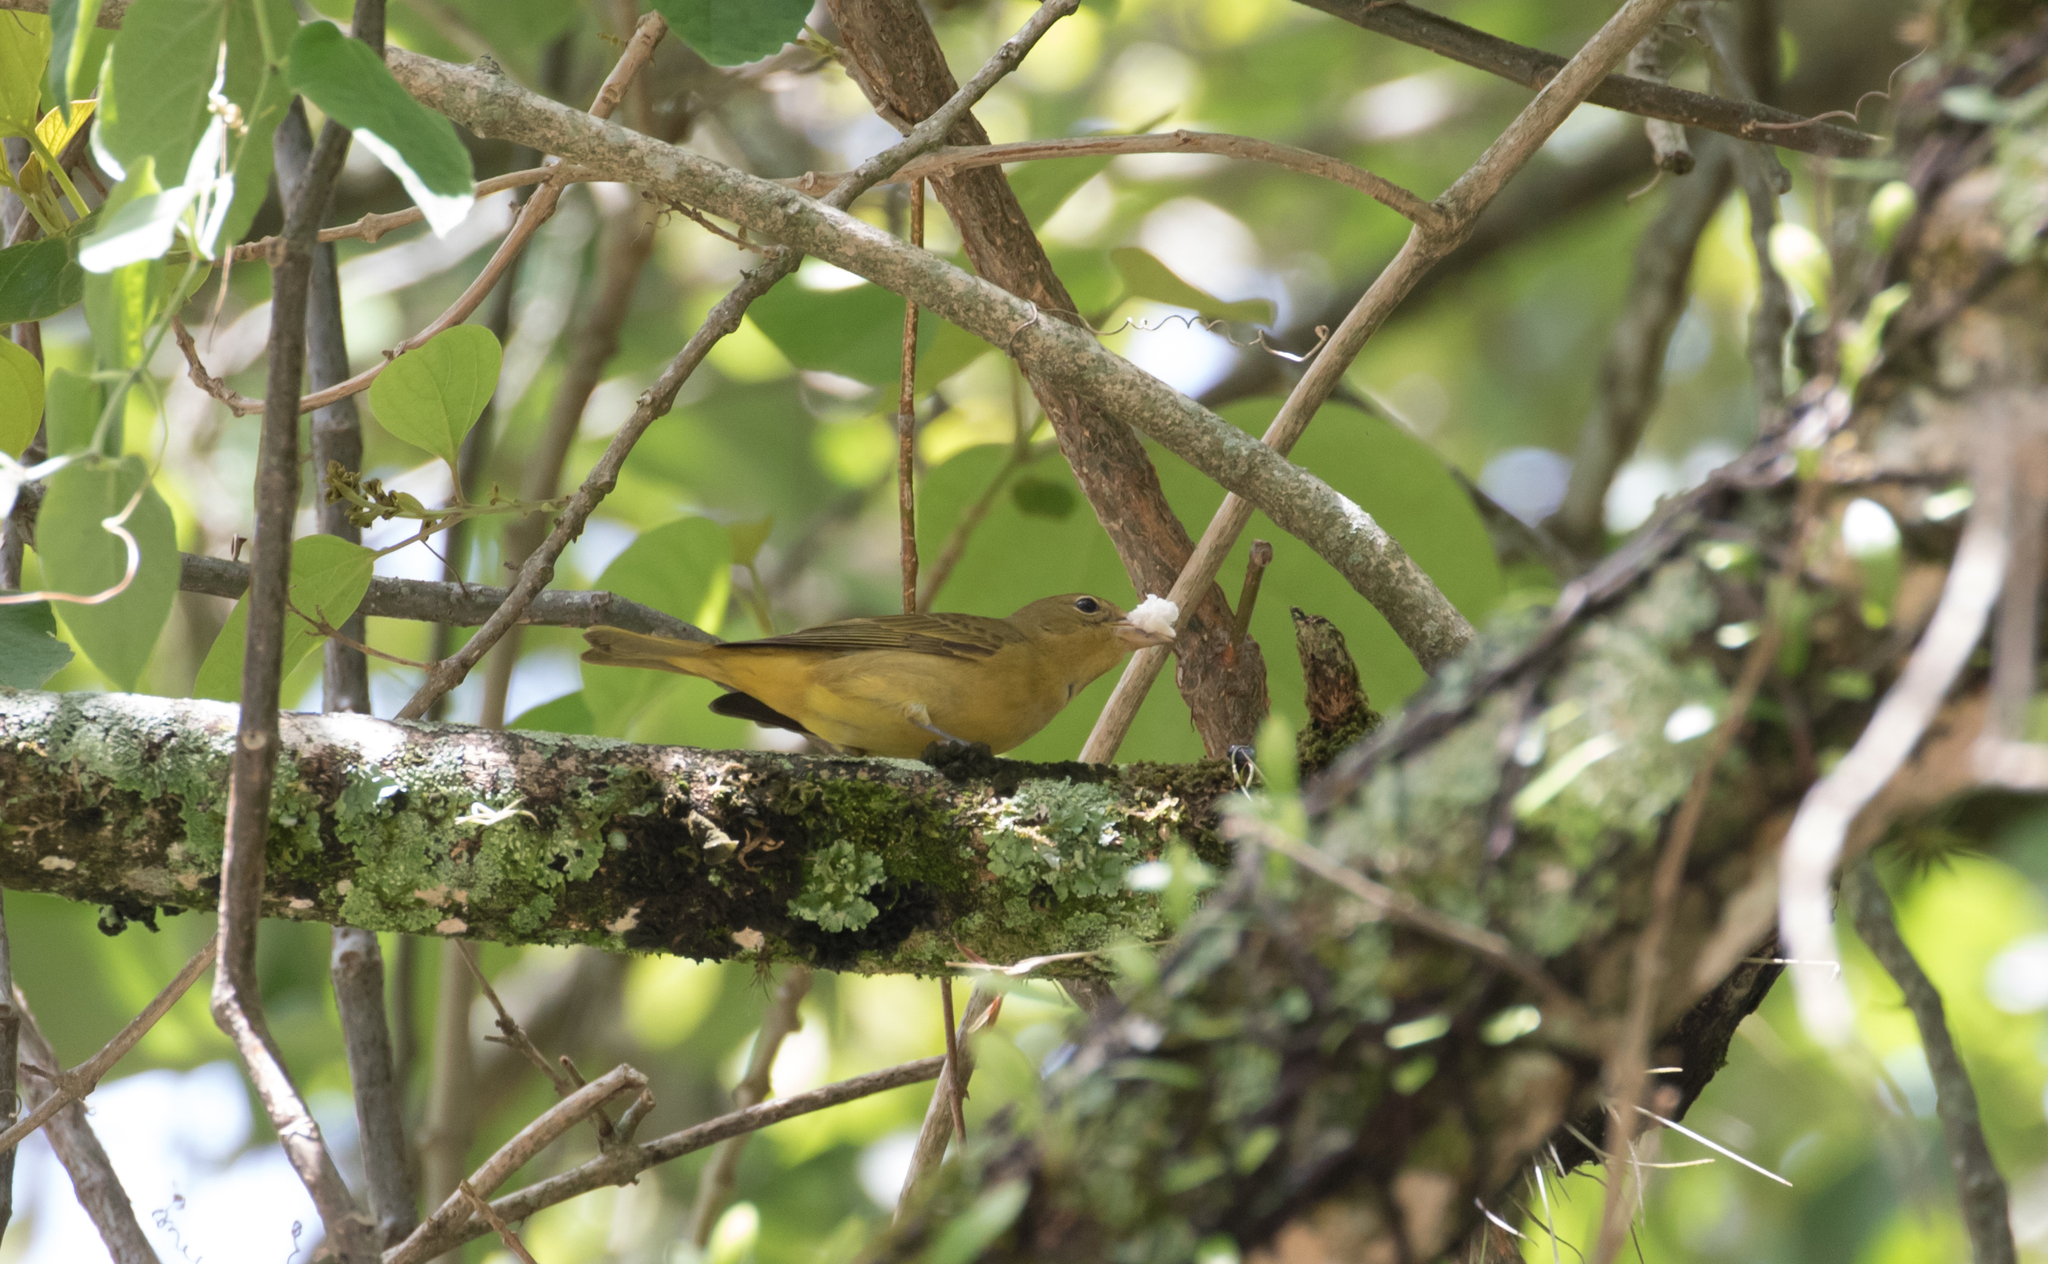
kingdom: Animalia
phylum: Chordata
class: Aves
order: Passeriformes
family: Cardinalidae
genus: Piranga
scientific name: Piranga rubra
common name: Summer tanager
